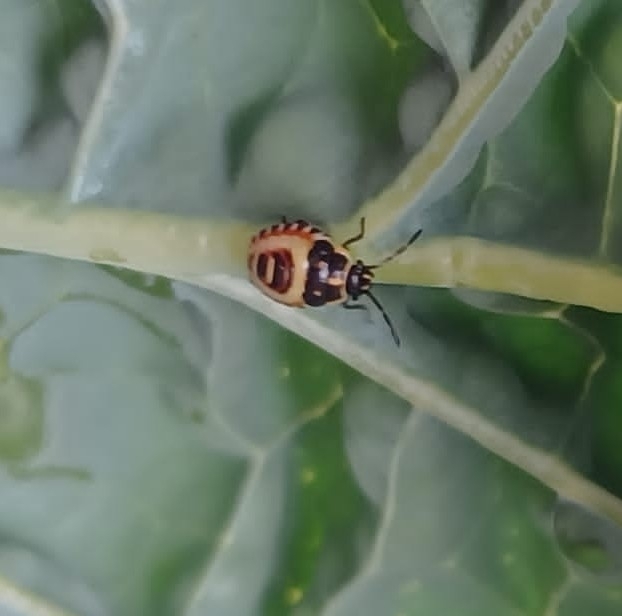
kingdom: Animalia
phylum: Arthropoda
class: Insecta
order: Hemiptera
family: Pentatomidae
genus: Eurydema
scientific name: Eurydema oleracea
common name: Cabbage bug
